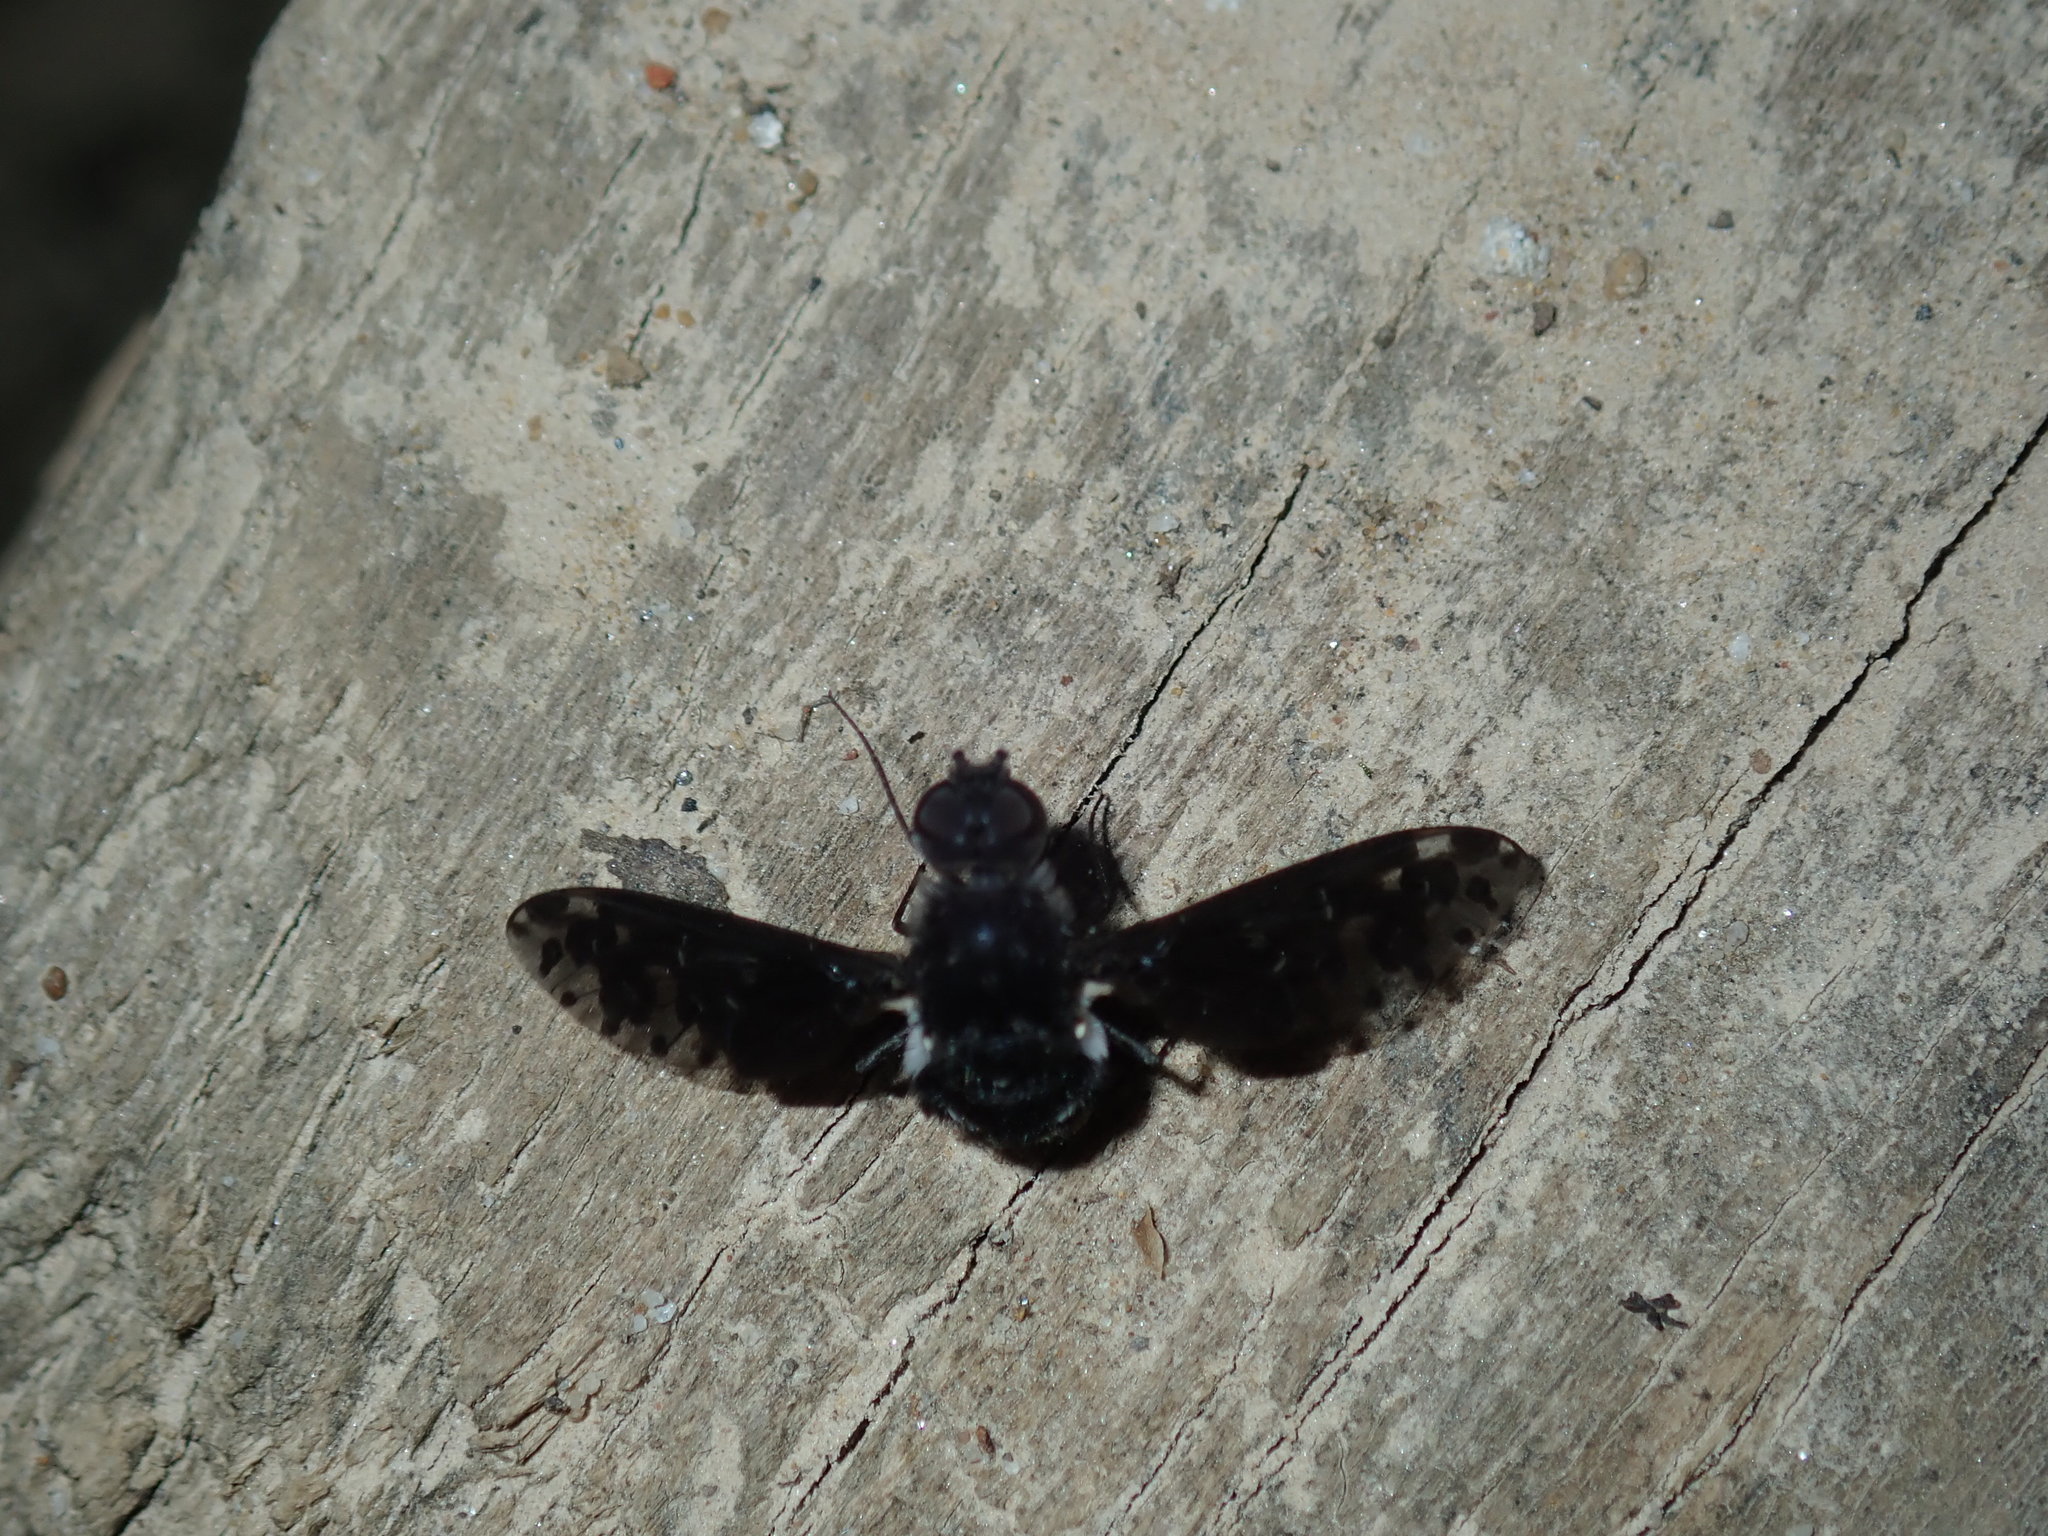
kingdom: Animalia
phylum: Arthropoda
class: Insecta
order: Diptera
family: Bombyliidae
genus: Anthrax
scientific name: Anthrax maculata
